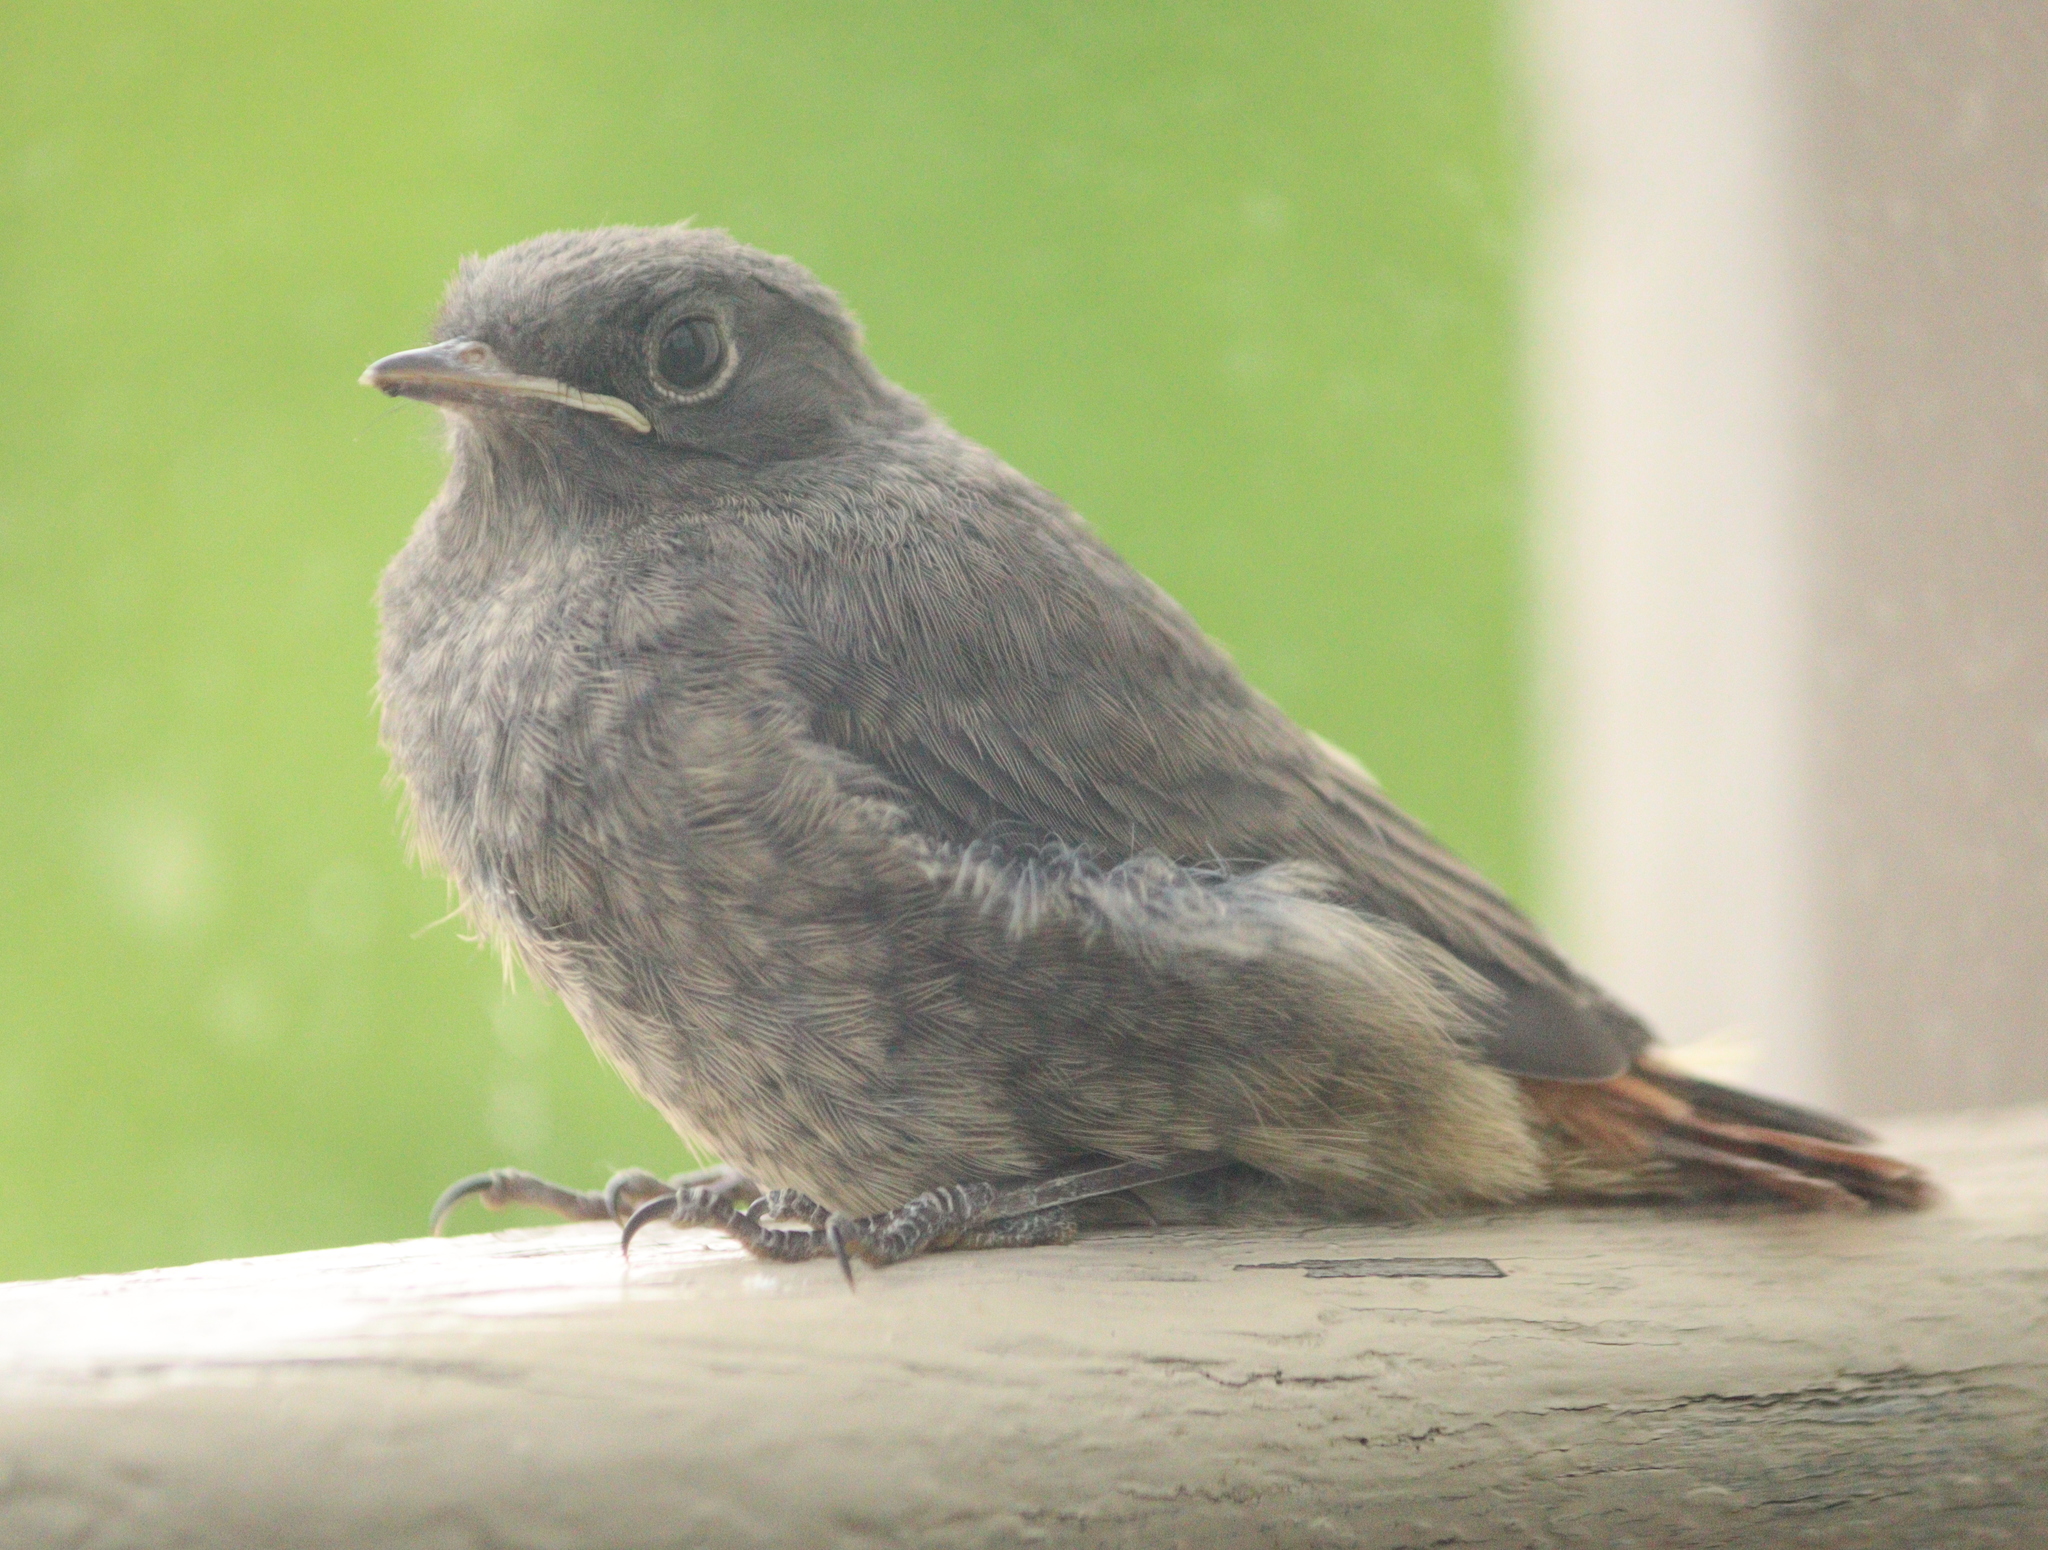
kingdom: Animalia
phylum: Chordata
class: Aves
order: Passeriformes
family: Muscicapidae
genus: Phoenicurus
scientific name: Phoenicurus ochruros
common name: Black redstart
